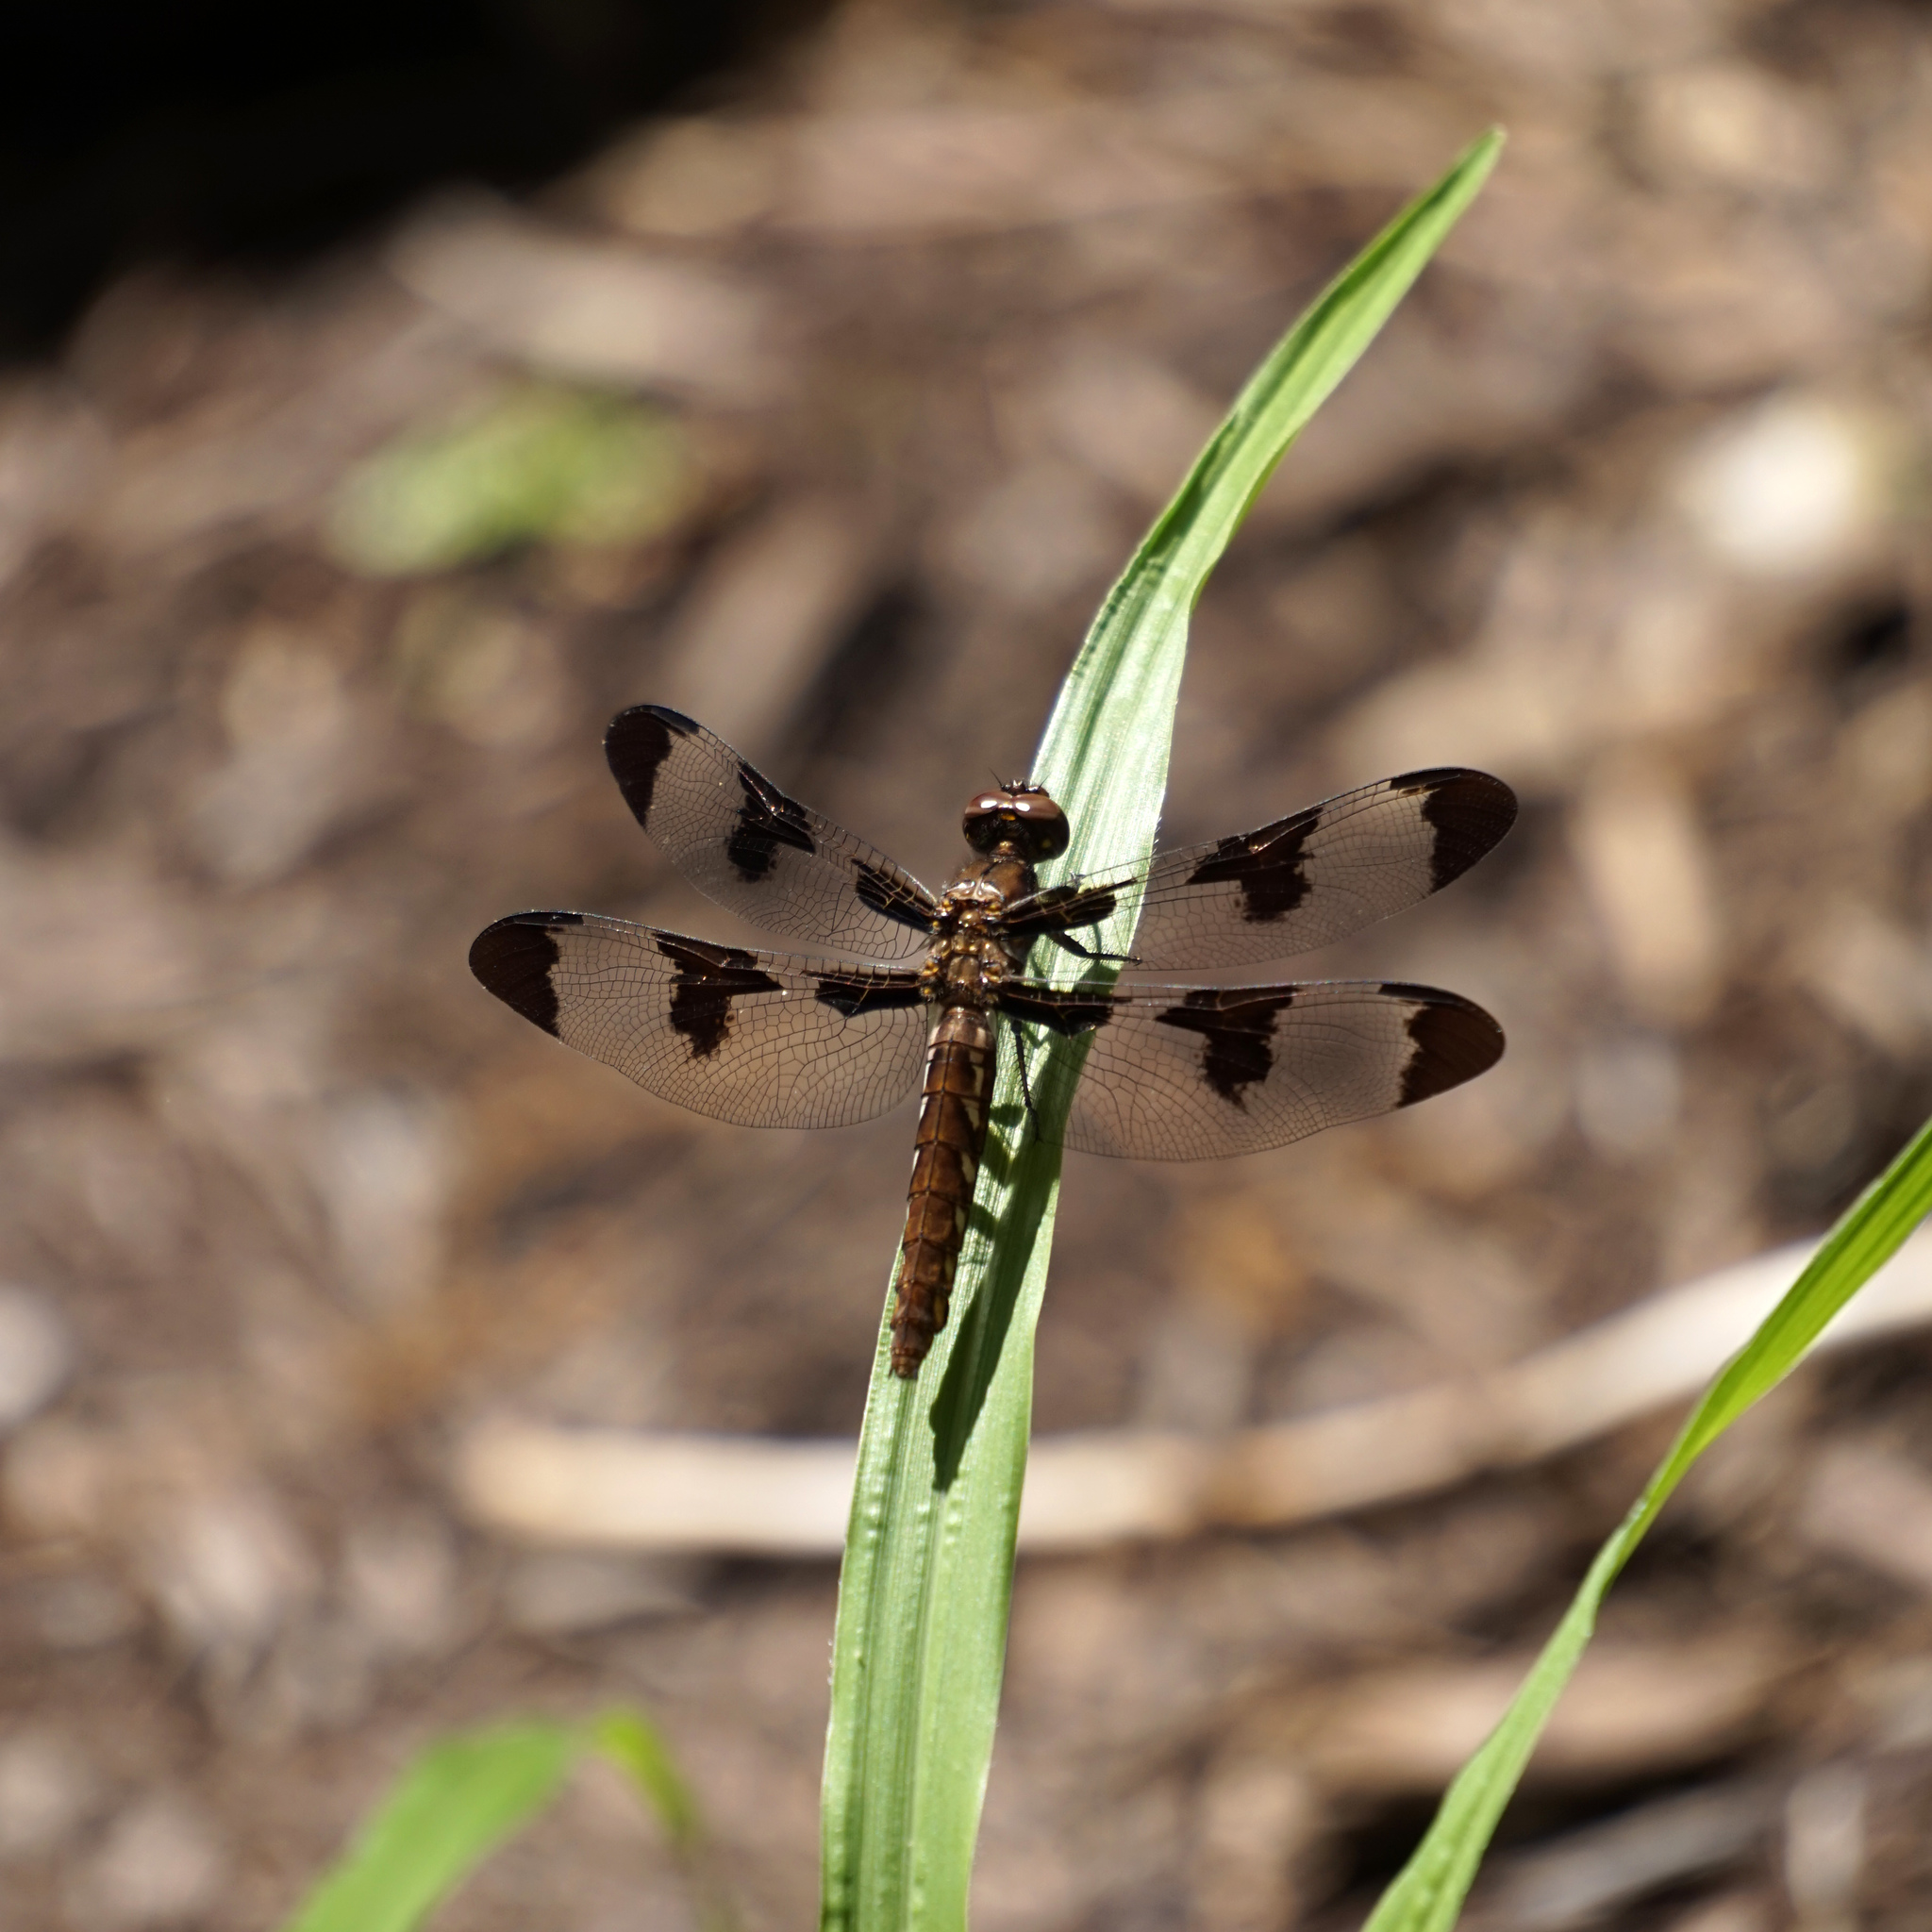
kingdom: Animalia
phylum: Arthropoda
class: Insecta
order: Odonata
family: Libellulidae
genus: Plathemis
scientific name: Plathemis lydia
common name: Common whitetail
